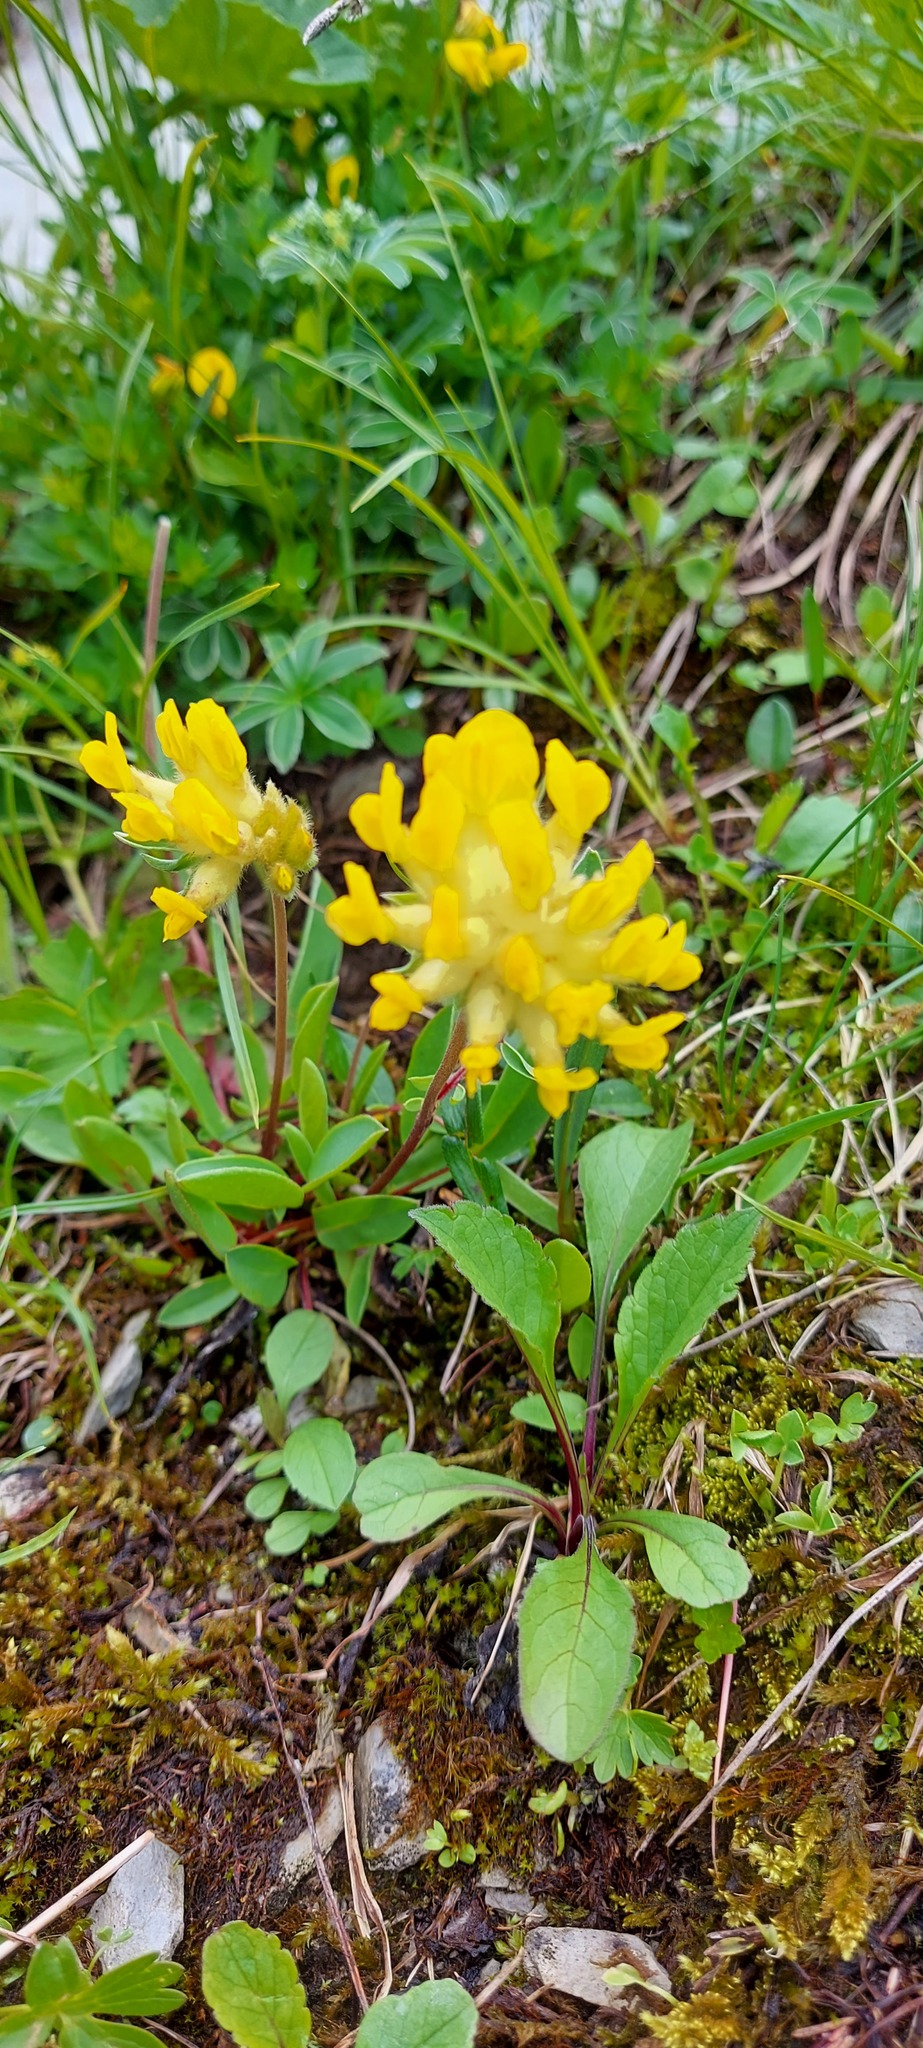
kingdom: Plantae
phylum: Tracheophyta
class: Magnoliopsida
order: Fabales
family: Fabaceae
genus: Anthyllis
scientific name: Anthyllis vulneraria
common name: Kidney vetch
